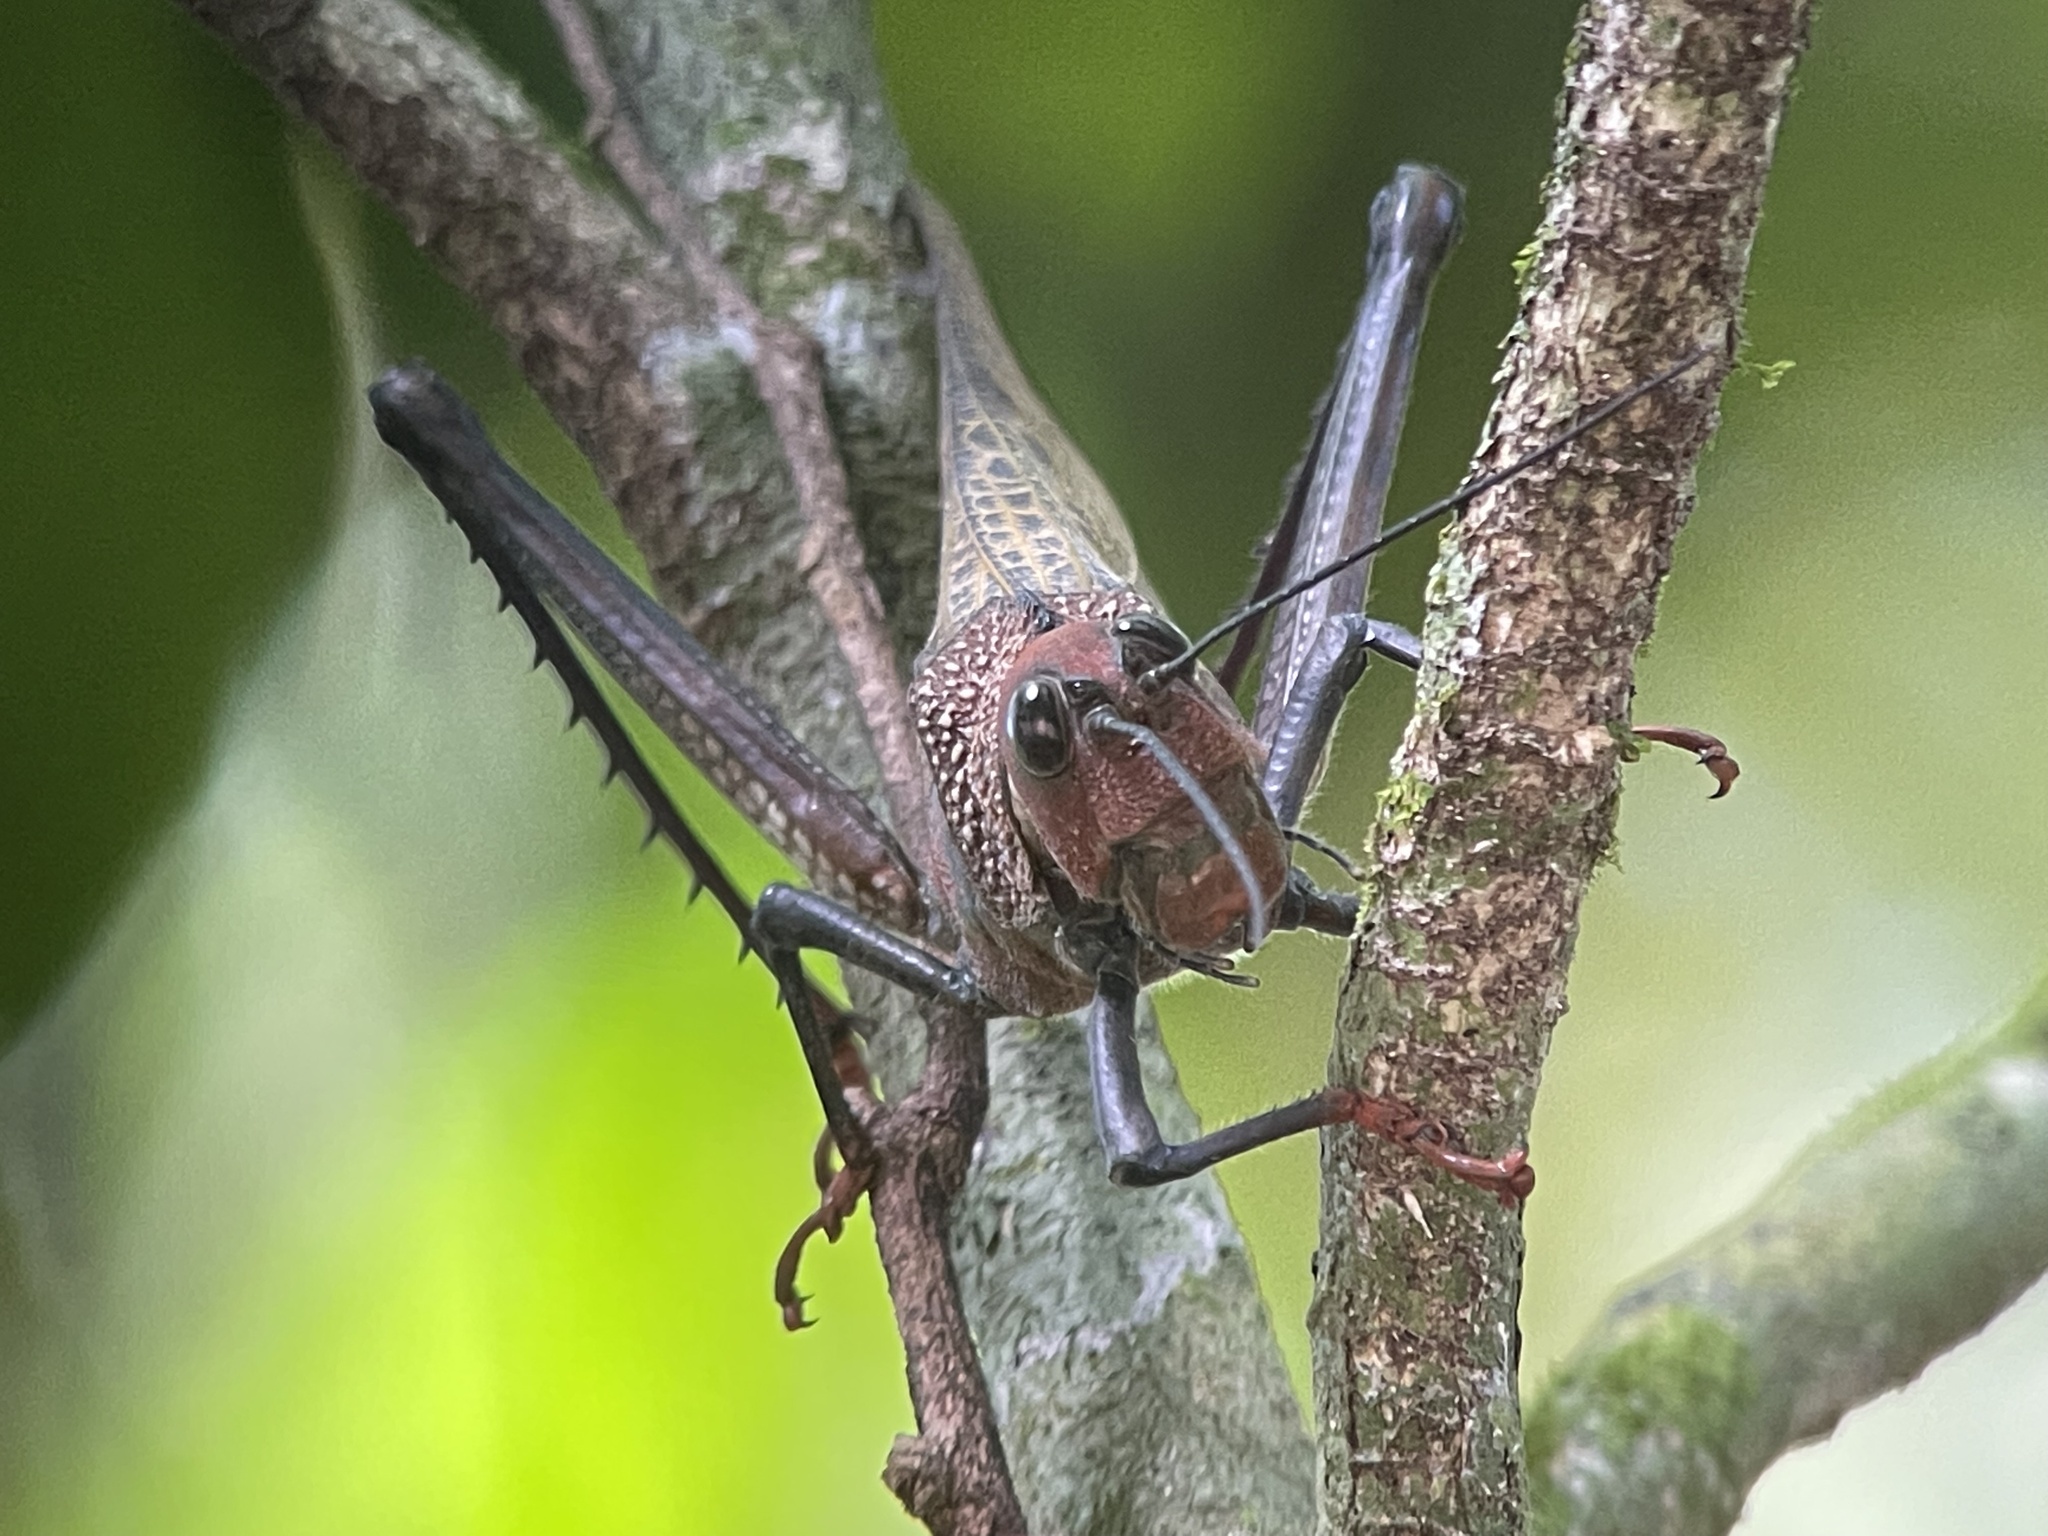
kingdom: Animalia
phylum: Arthropoda
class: Insecta
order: Orthoptera
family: Romaleidae
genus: Tropidacris
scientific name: Tropidacris cristata
